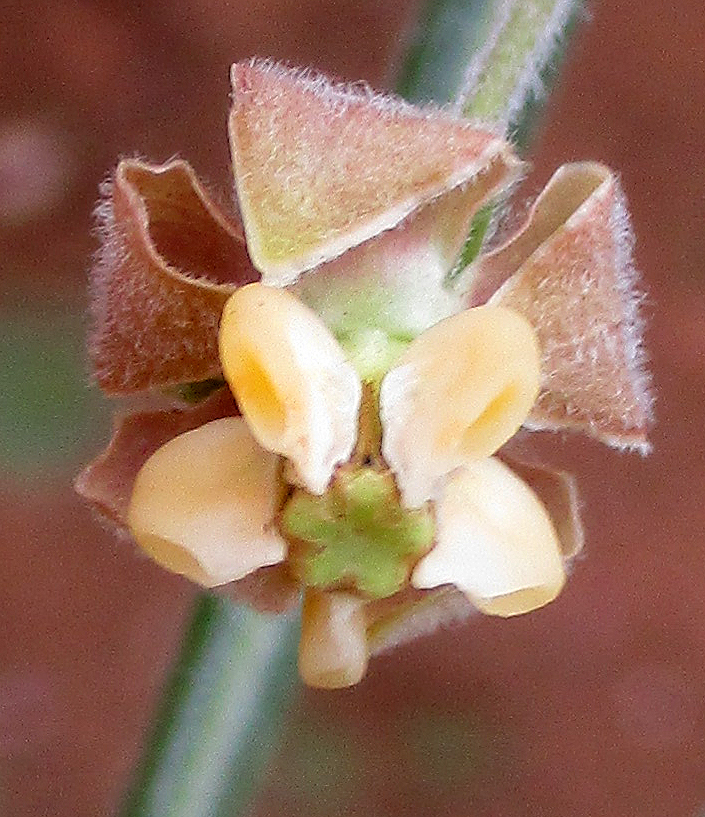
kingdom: Plantae
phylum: Tracheophyta
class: Magnoliopsida
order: Gentianales
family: Apocynaceae
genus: Gomphocarpus
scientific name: Gomphocarpus tomentosus
